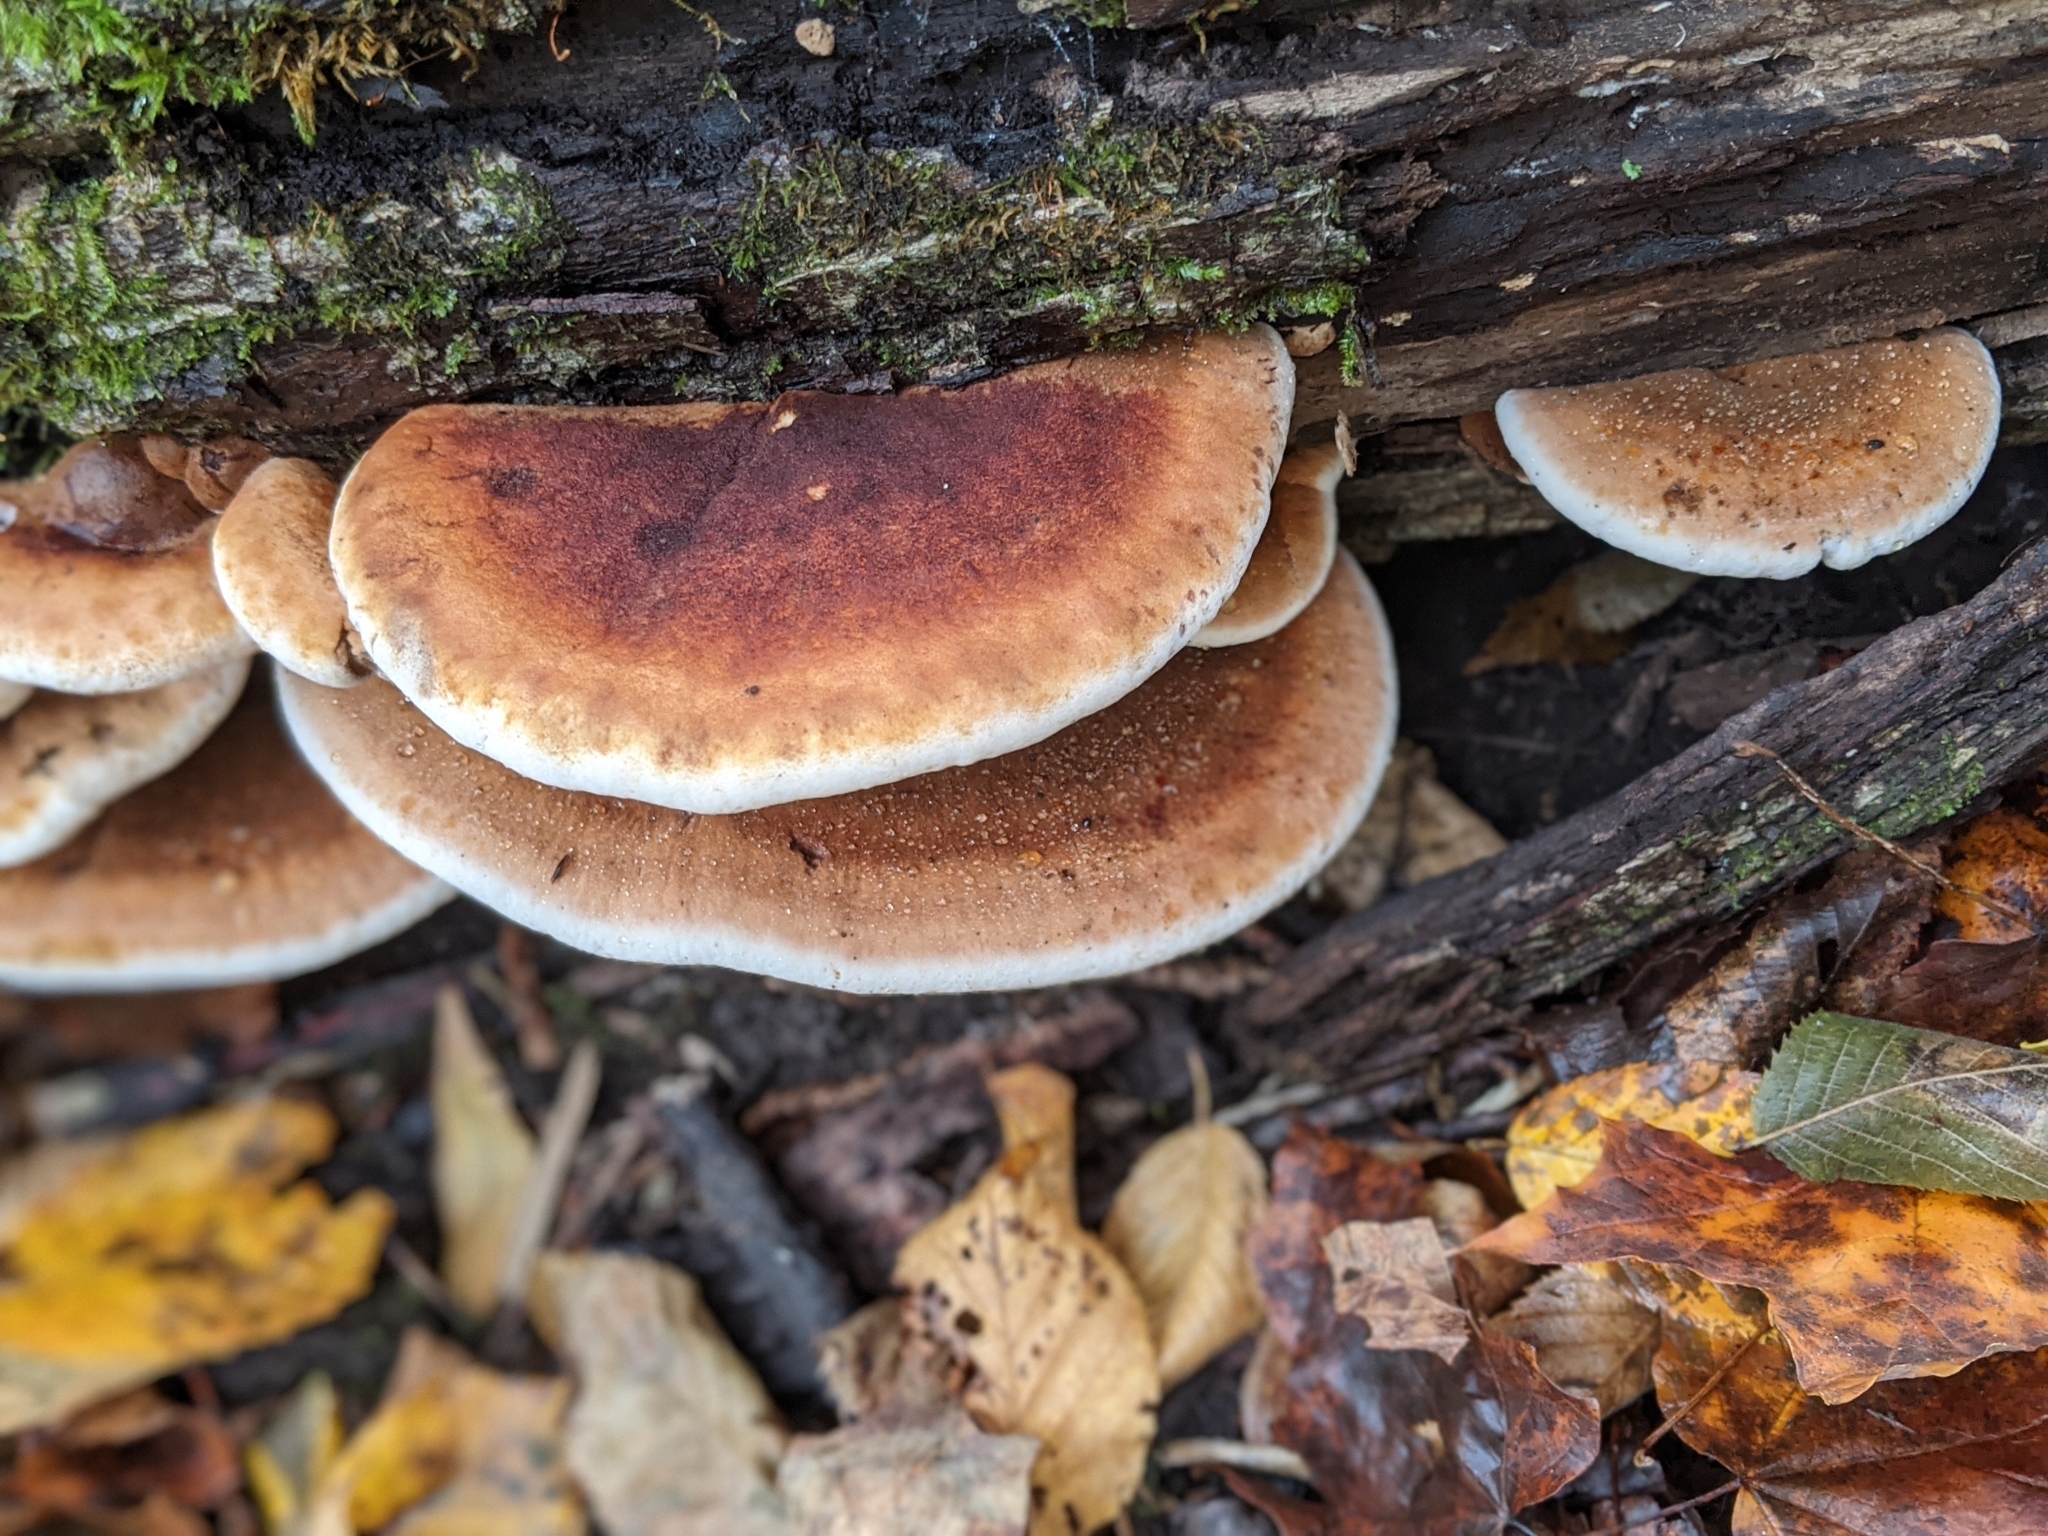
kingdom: Fungi
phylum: Basidiomycota
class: Agaricomycetes
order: Polyporales
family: Ischnodermataceae
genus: Ischnoderma
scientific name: Ischnoderma resinosum
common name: Resinous polypore
